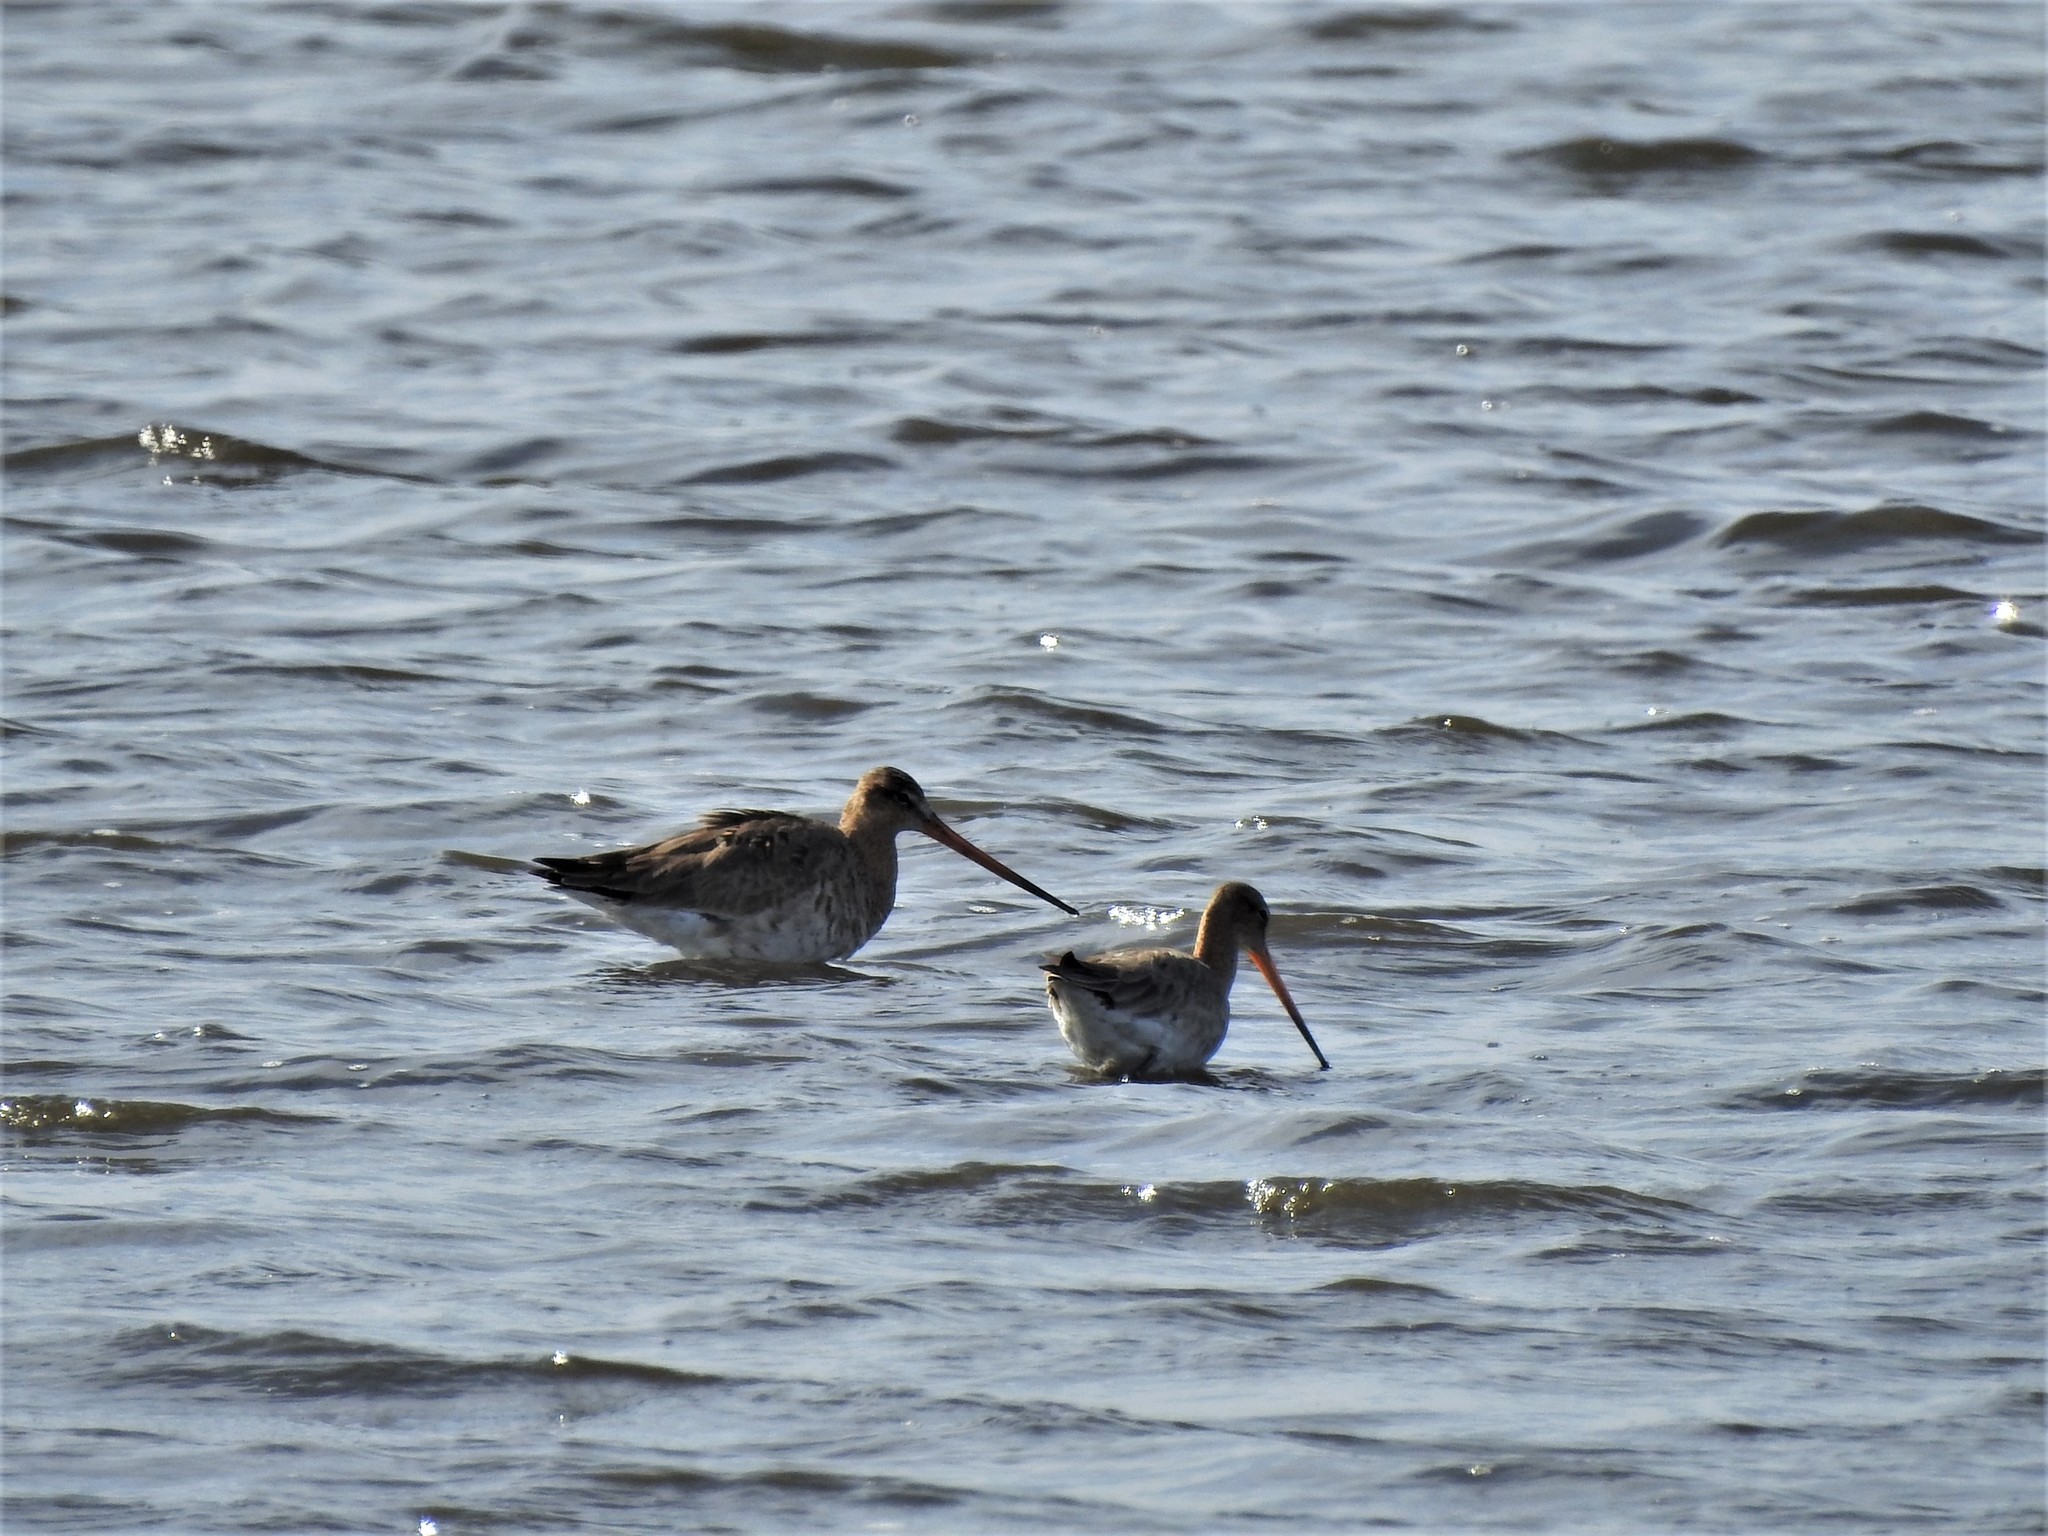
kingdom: Animalia
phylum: Chordata
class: Aves
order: Charadriiformes
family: Scolopacidae
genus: Limosa
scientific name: Limosa limosa
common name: Black-tailed godwit
